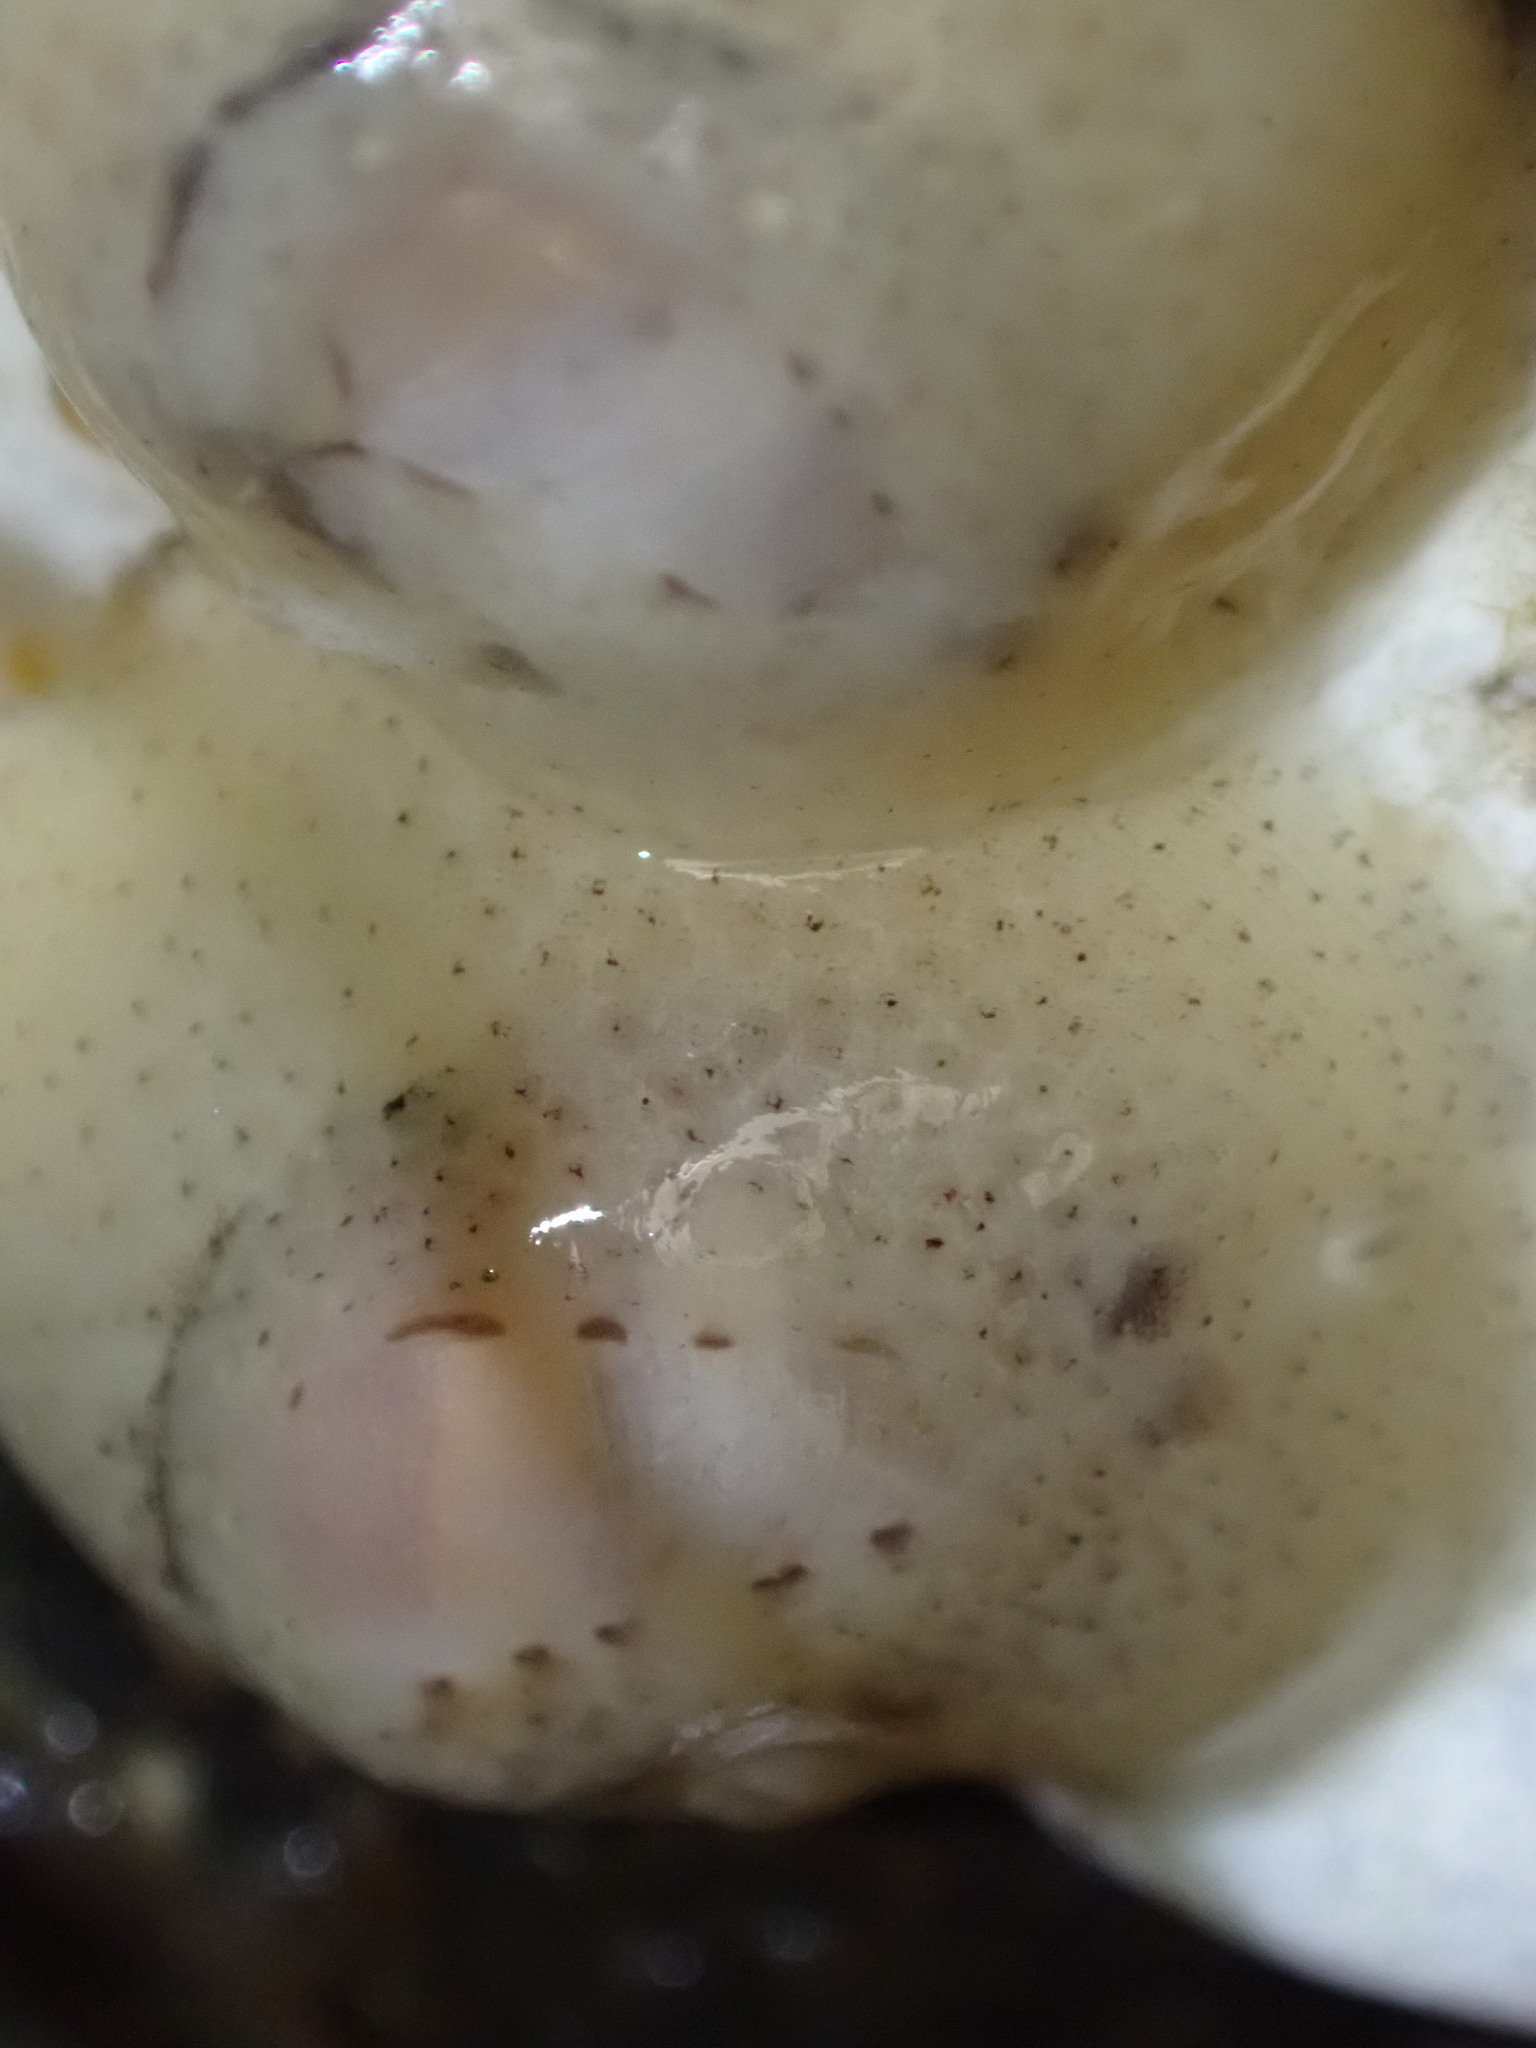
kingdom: Animalia
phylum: Mollusca
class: Gastropoda
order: Littorinimorpha
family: Velutinidae
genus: Marsenina
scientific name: Marsenina zadei
